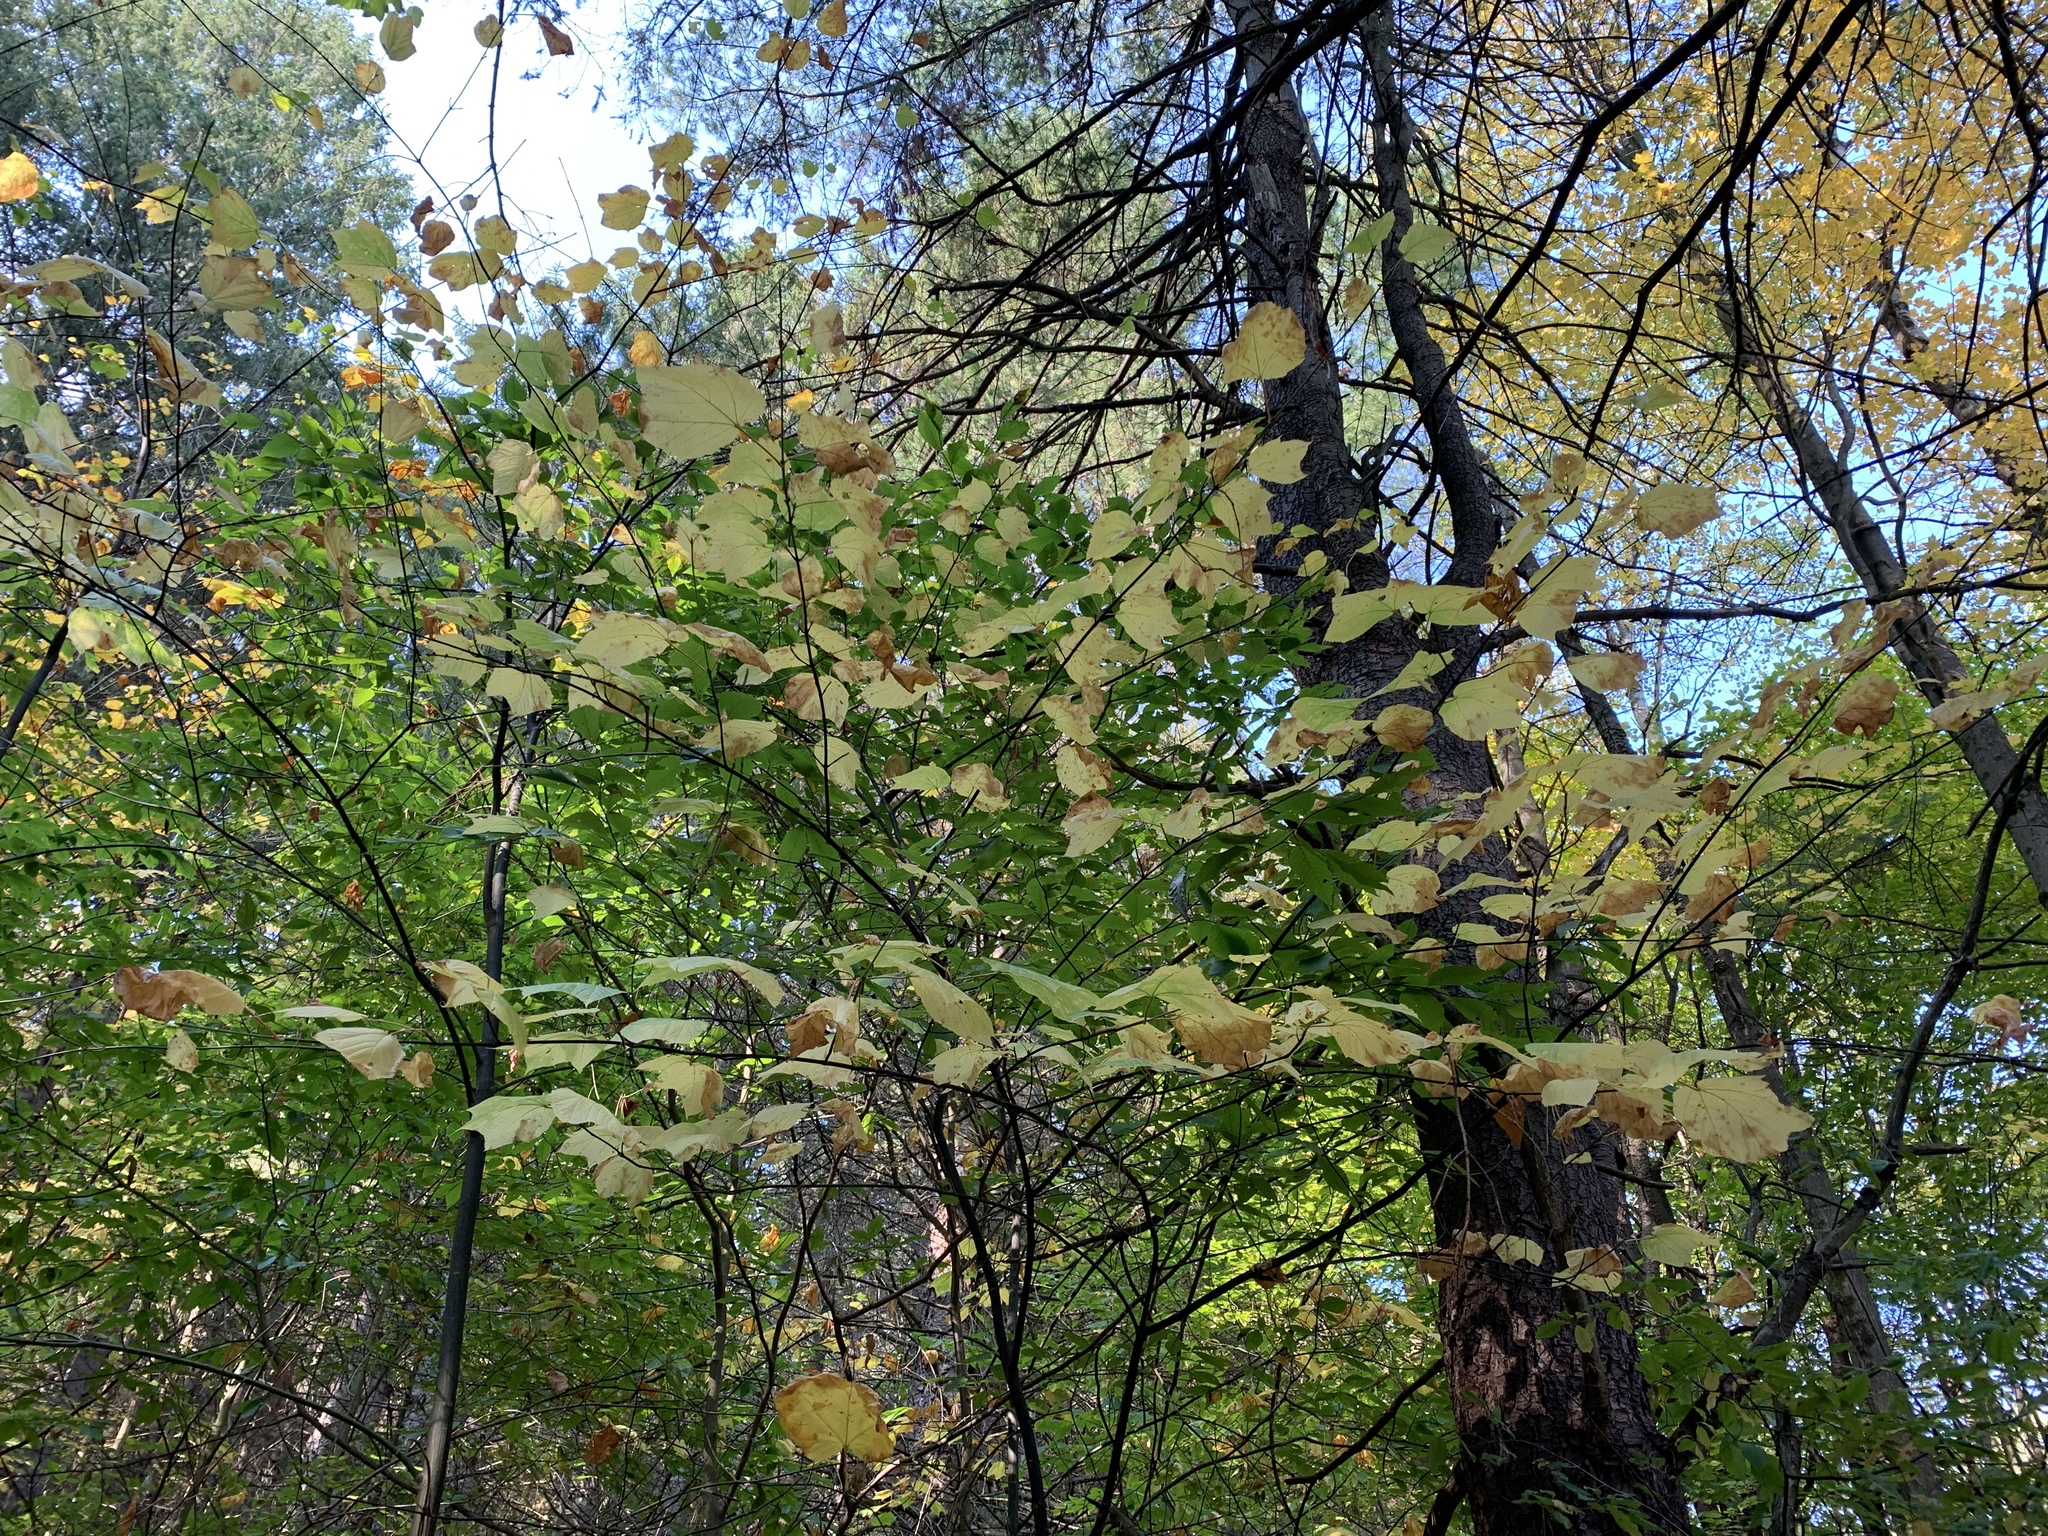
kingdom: Plantae
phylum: Tracheophyta
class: Magnoliopsida
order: Sapindales
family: Sapindaceae
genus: Acer
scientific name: Acer pensylvanicum
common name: Moosewood
